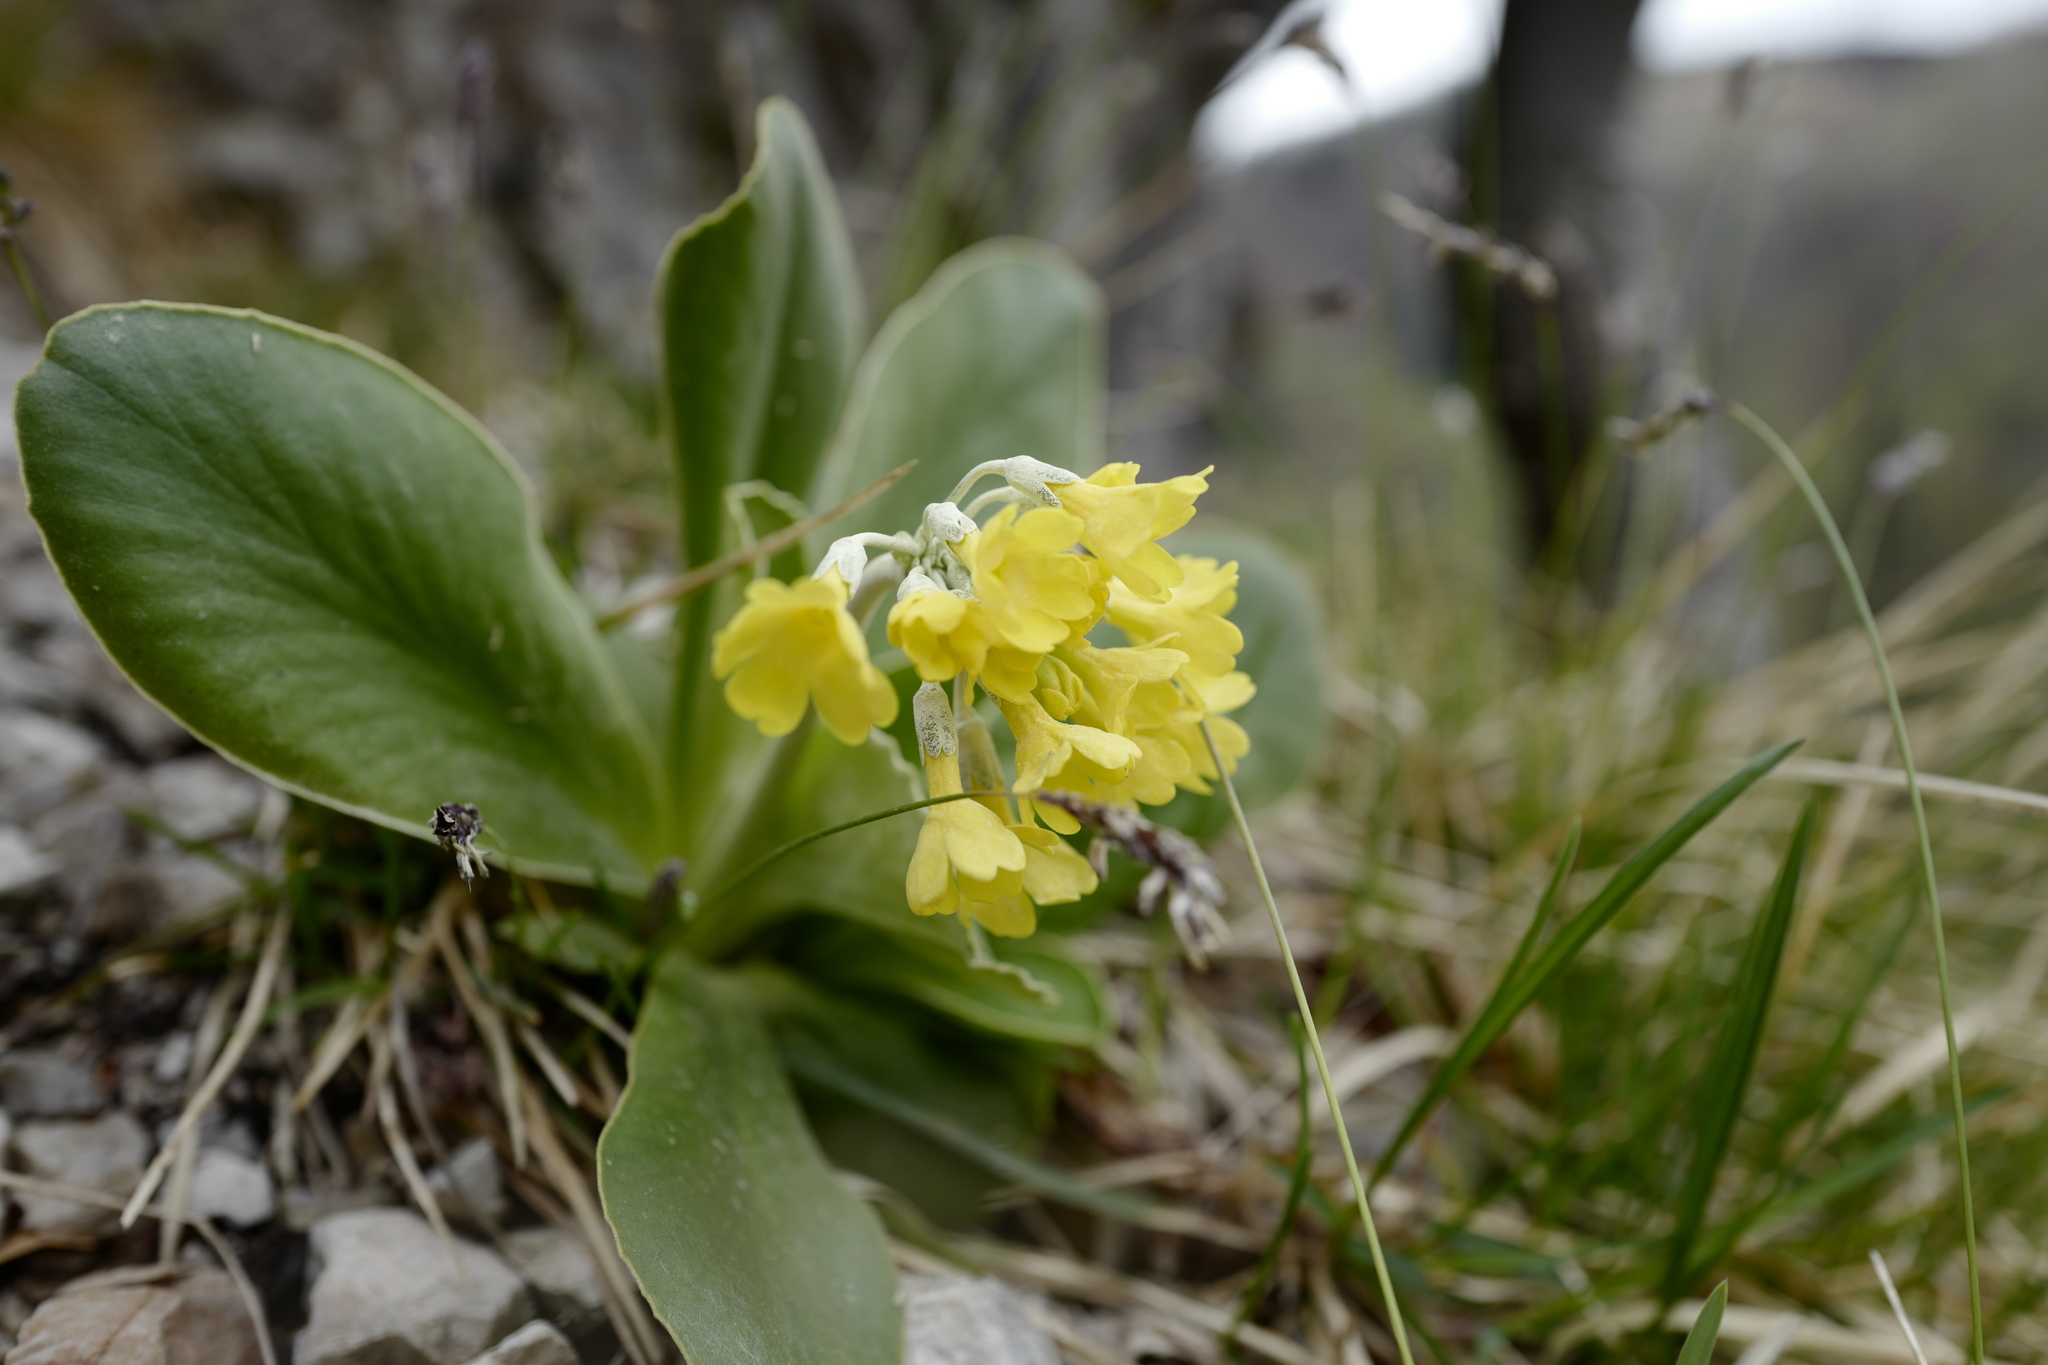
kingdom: Plantae
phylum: Tracheophyta
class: Magnoliopsida
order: Ericales
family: Primulaceae
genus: Primula
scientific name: Primula auricula
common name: Auricula
